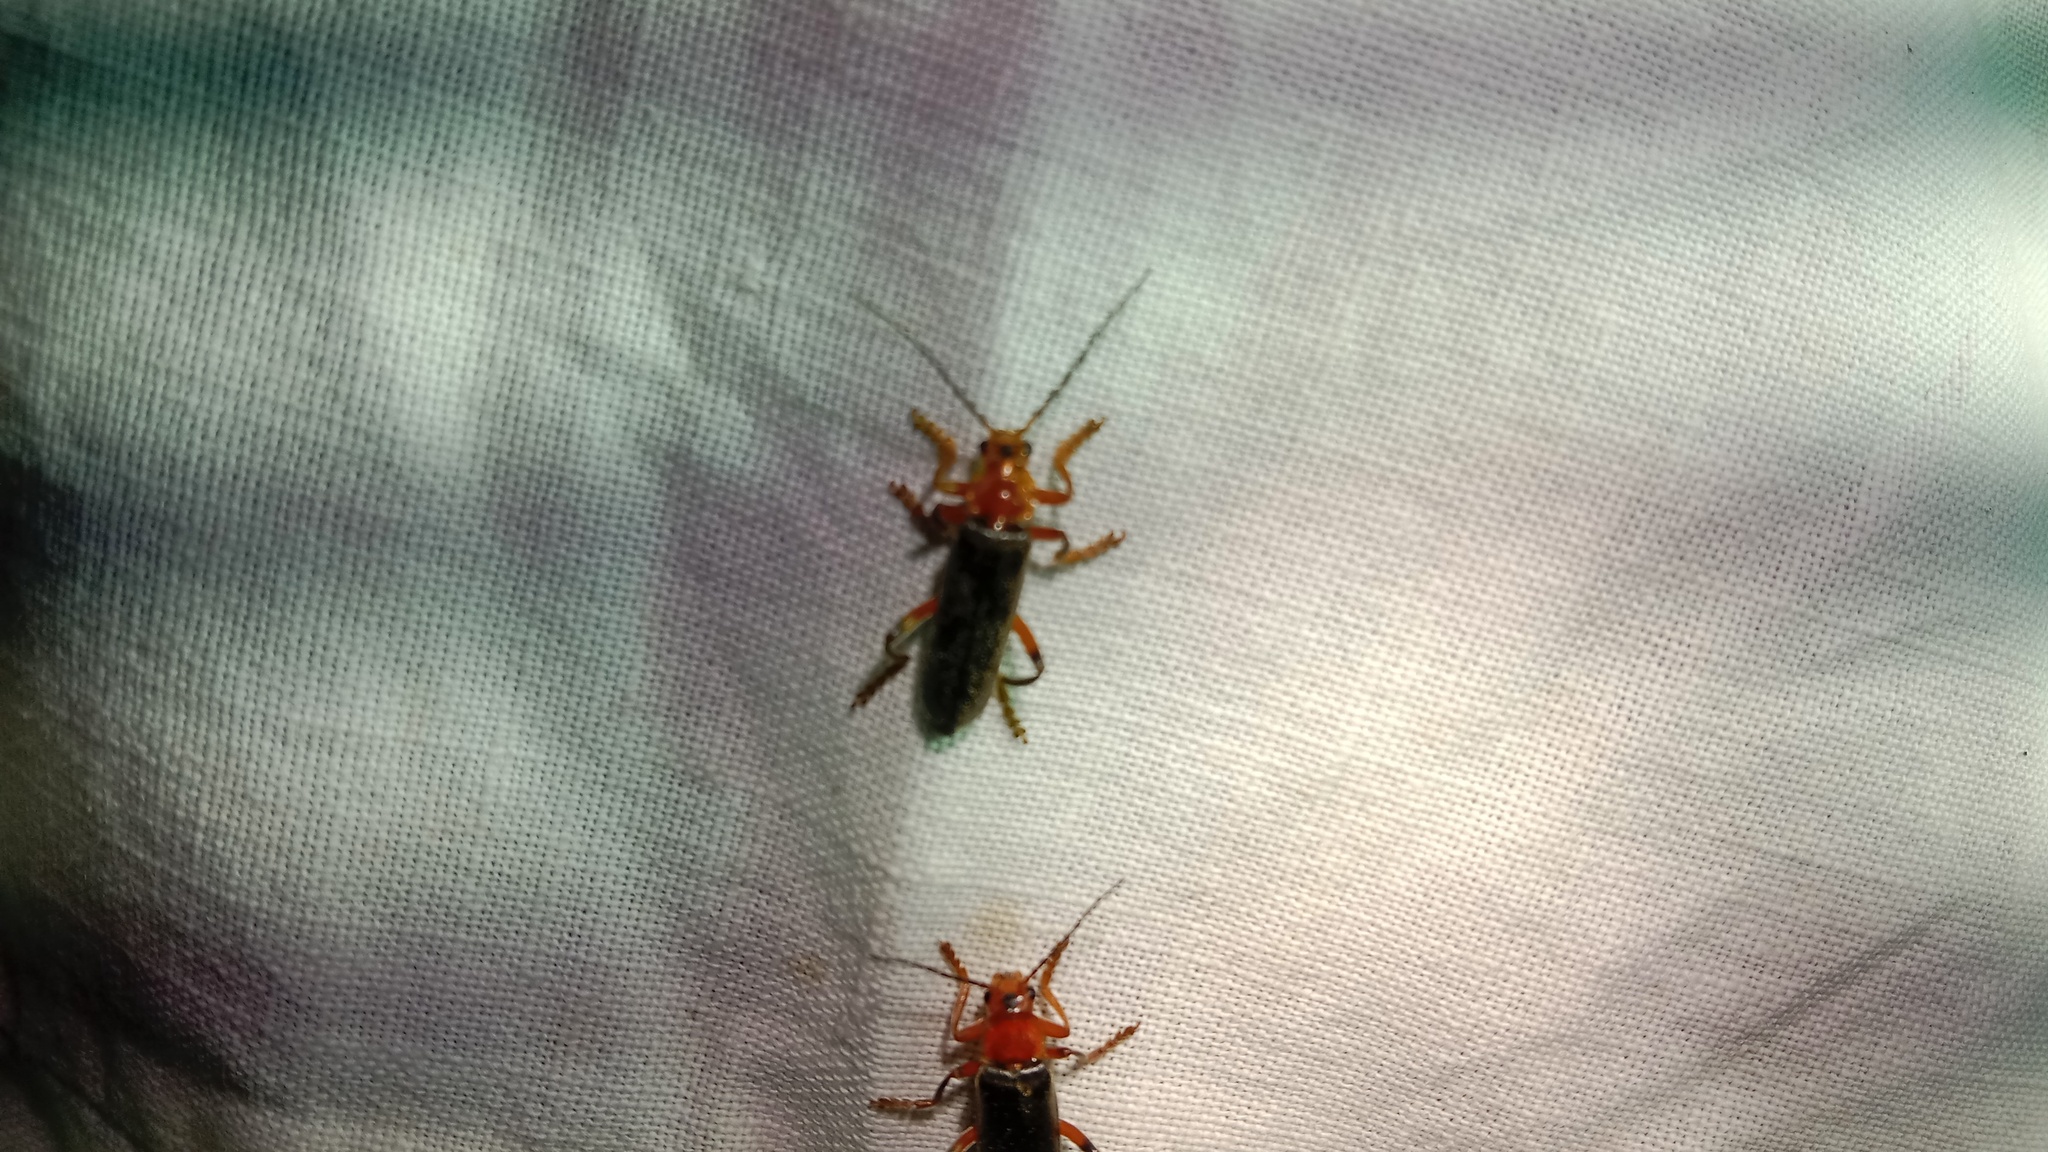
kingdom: Animalia
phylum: Arthropoda
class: Insecta
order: Coleoptera
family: Cantharidae
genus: Cantharis
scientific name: Cantharis livida
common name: Livid soldier beetle
